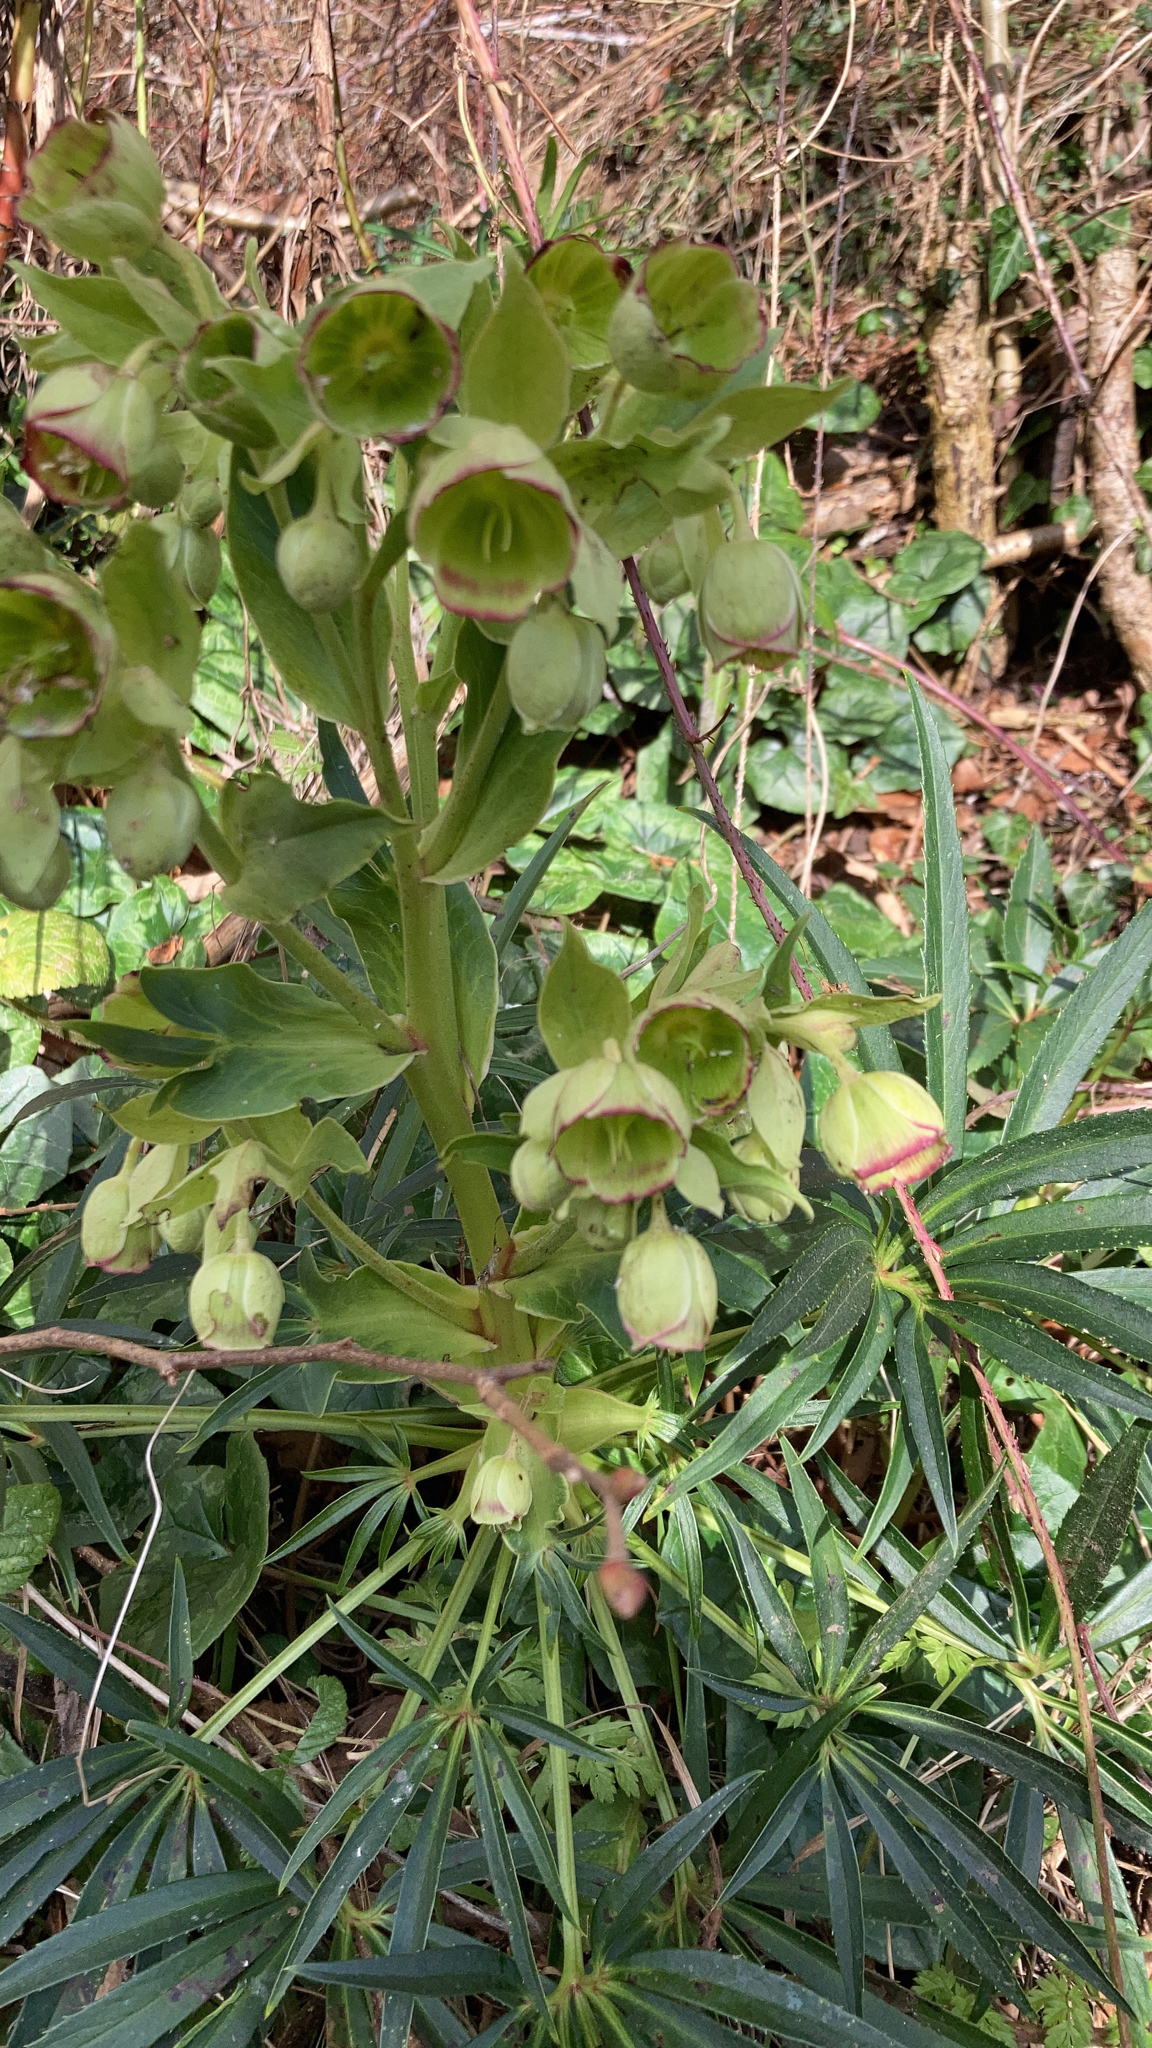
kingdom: Plantae
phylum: Tracheophyta
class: Magnoliopsida
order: Ranunculales
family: Ranunculaceae
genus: Helleborus
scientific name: Helleborus foetidus
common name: Stinking hellebore
